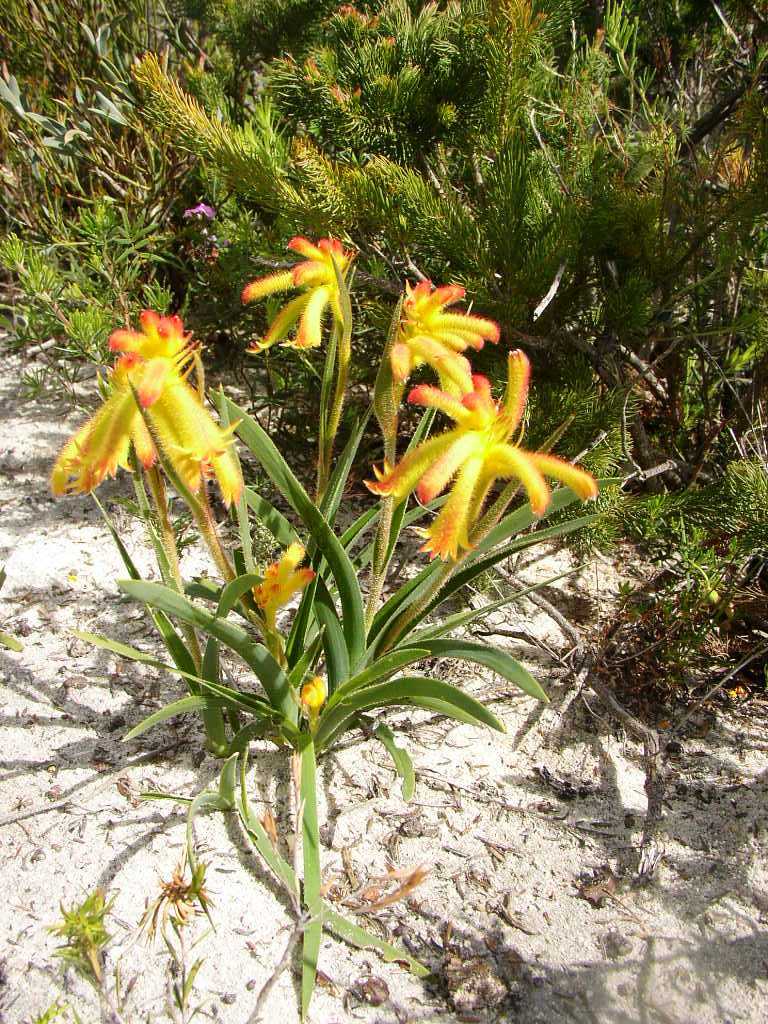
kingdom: Plantae
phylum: Tracheophyta
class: Liliopsida
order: Commelinales
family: Haemodoraceae
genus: Anigozanthos
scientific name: Anigozanthos humilis
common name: Cat's-paw
